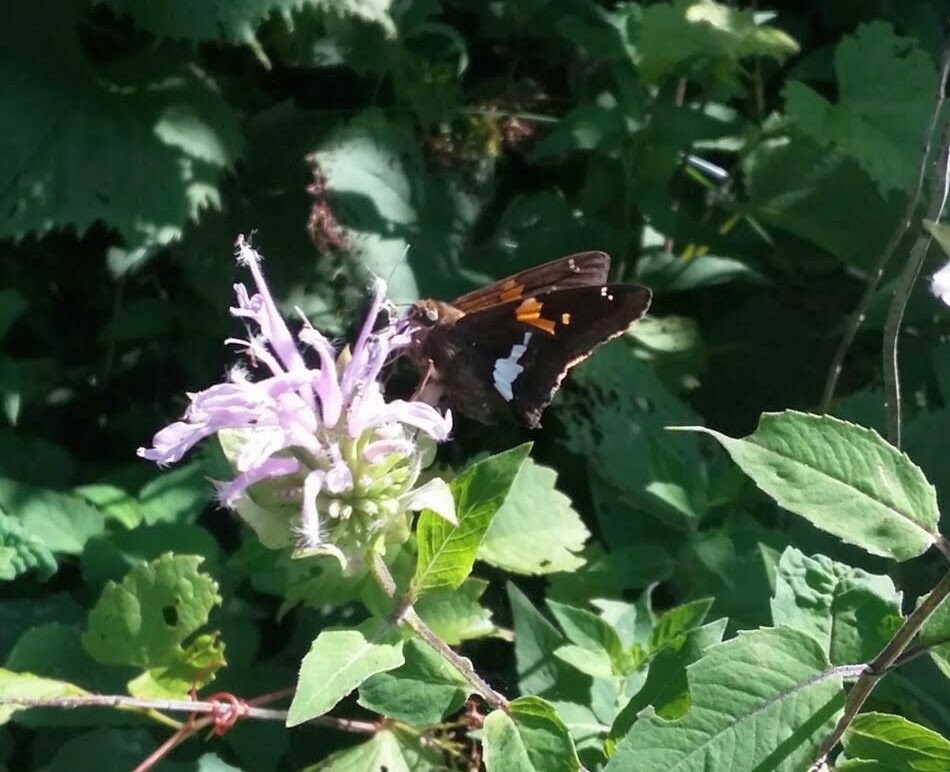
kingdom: Animalia
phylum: Arthropoda
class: Insecta
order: Lepidoptera
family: Hesperiidae
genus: Epargyreus
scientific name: Epargyreus clarus
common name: Silver-spotted skipper
